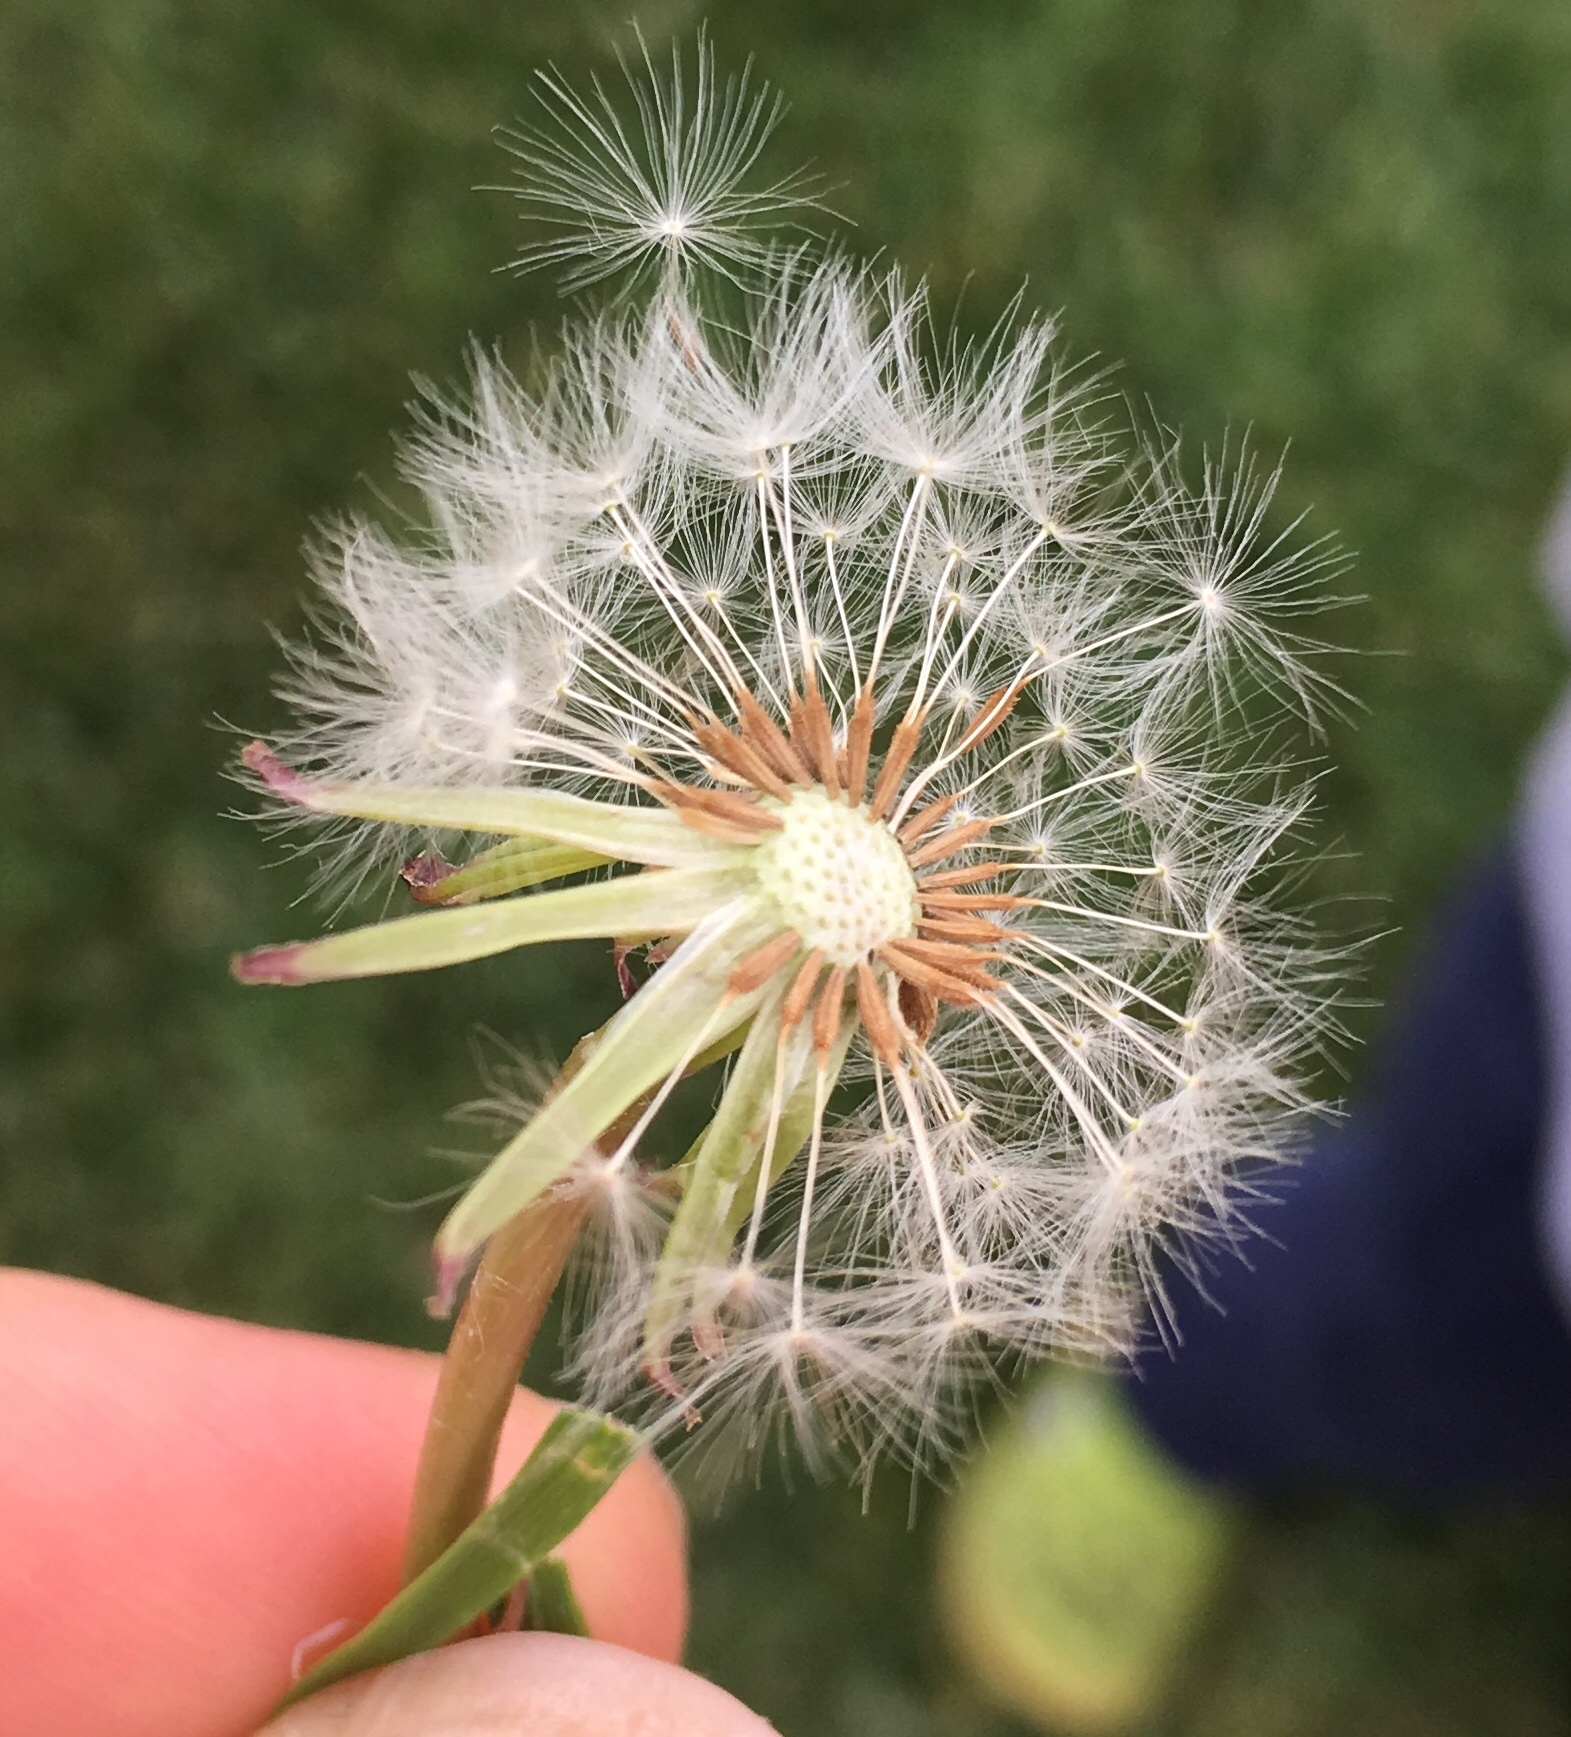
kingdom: Plantae
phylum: Tracheophyta
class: Magnoliopsida
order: Asterales
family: Asteraceae
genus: Taraxacum
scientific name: Taraxacum officinale
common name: Common dandelion
